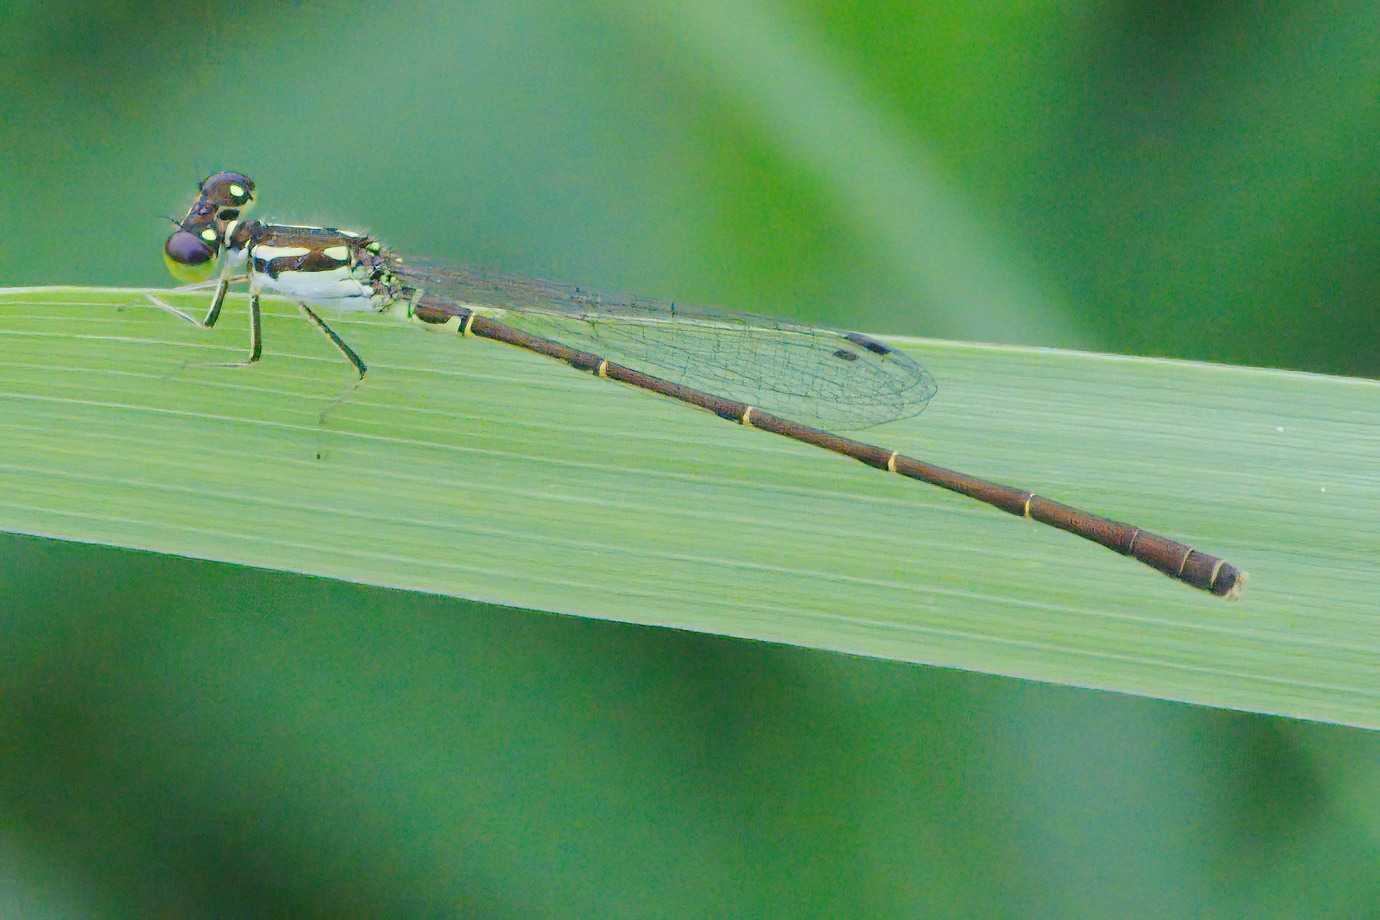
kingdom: Animalia
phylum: Arthropoda
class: Insecta
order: Odonata
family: Coenagrionidae
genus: Ischnura
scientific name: Ischnura posita
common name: Fragile forktail
